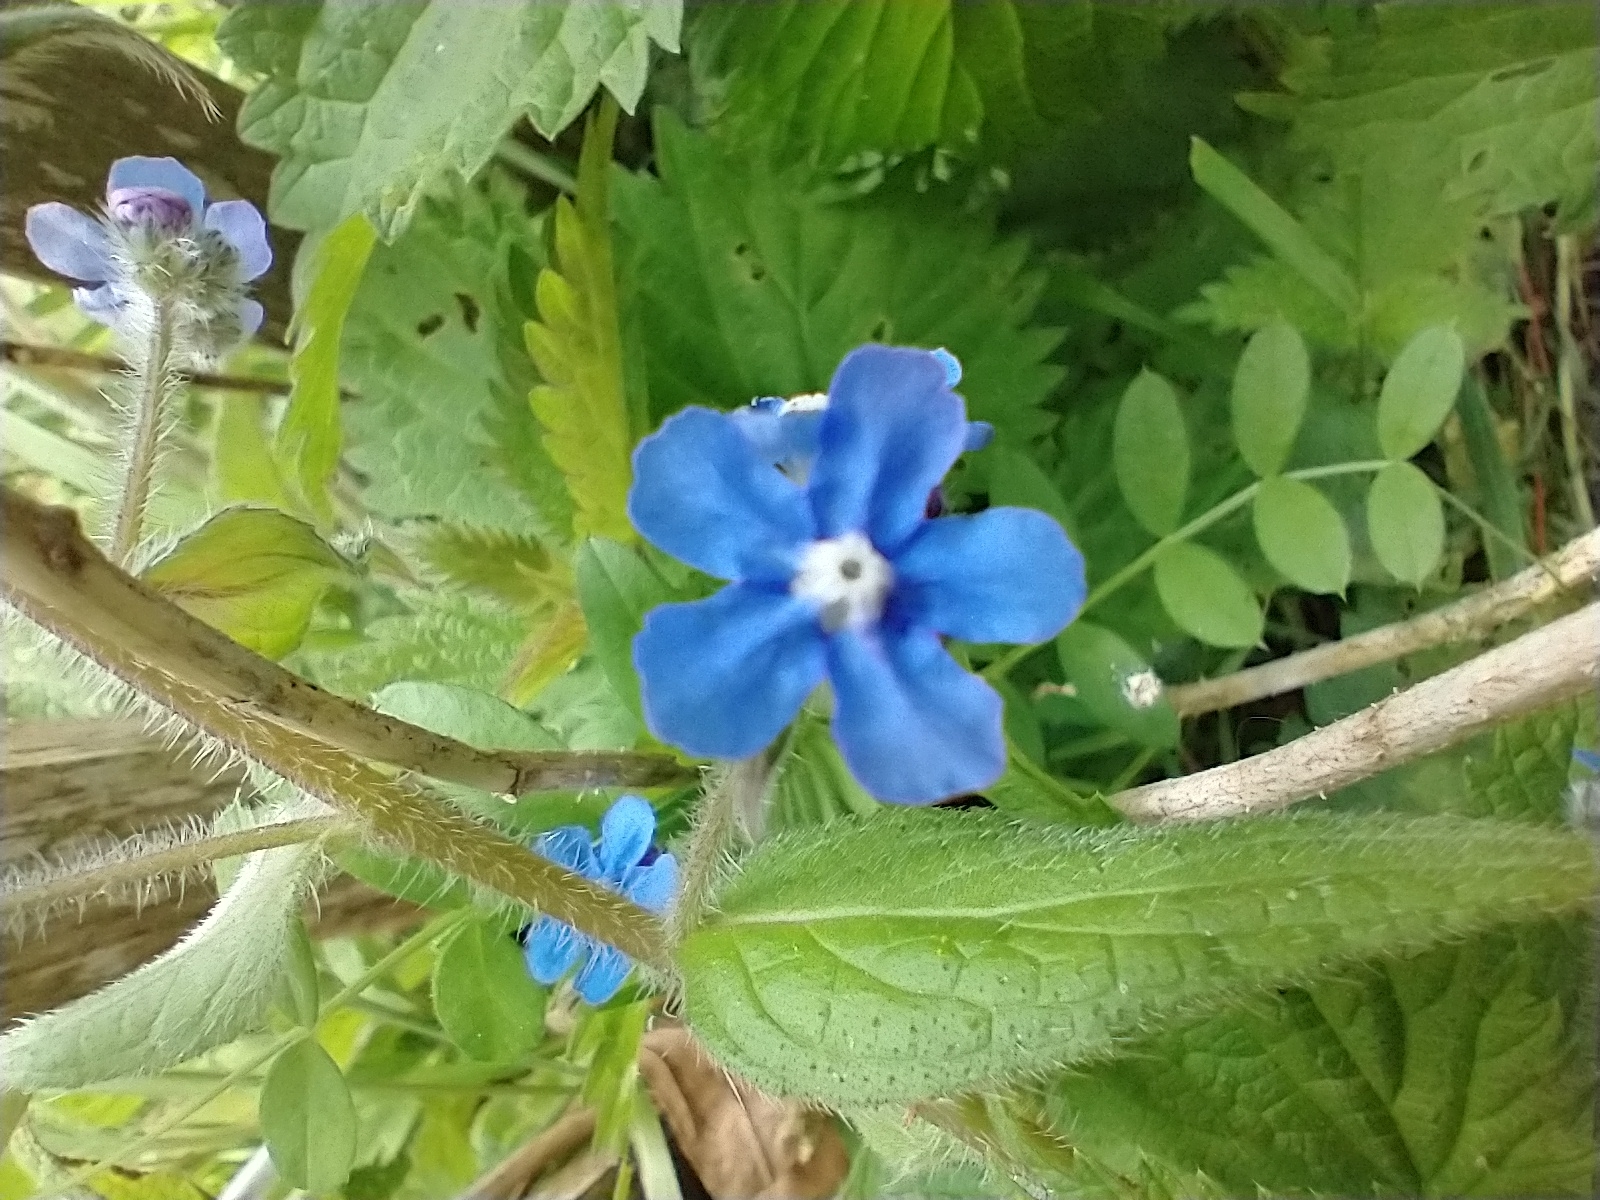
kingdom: Plantae
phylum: Tracheophyta
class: Magnoliopsida
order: Boraginales
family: Boraginaceae
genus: Pentaglottis
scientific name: Pentaglottis sempervirens
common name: Green alkanet
